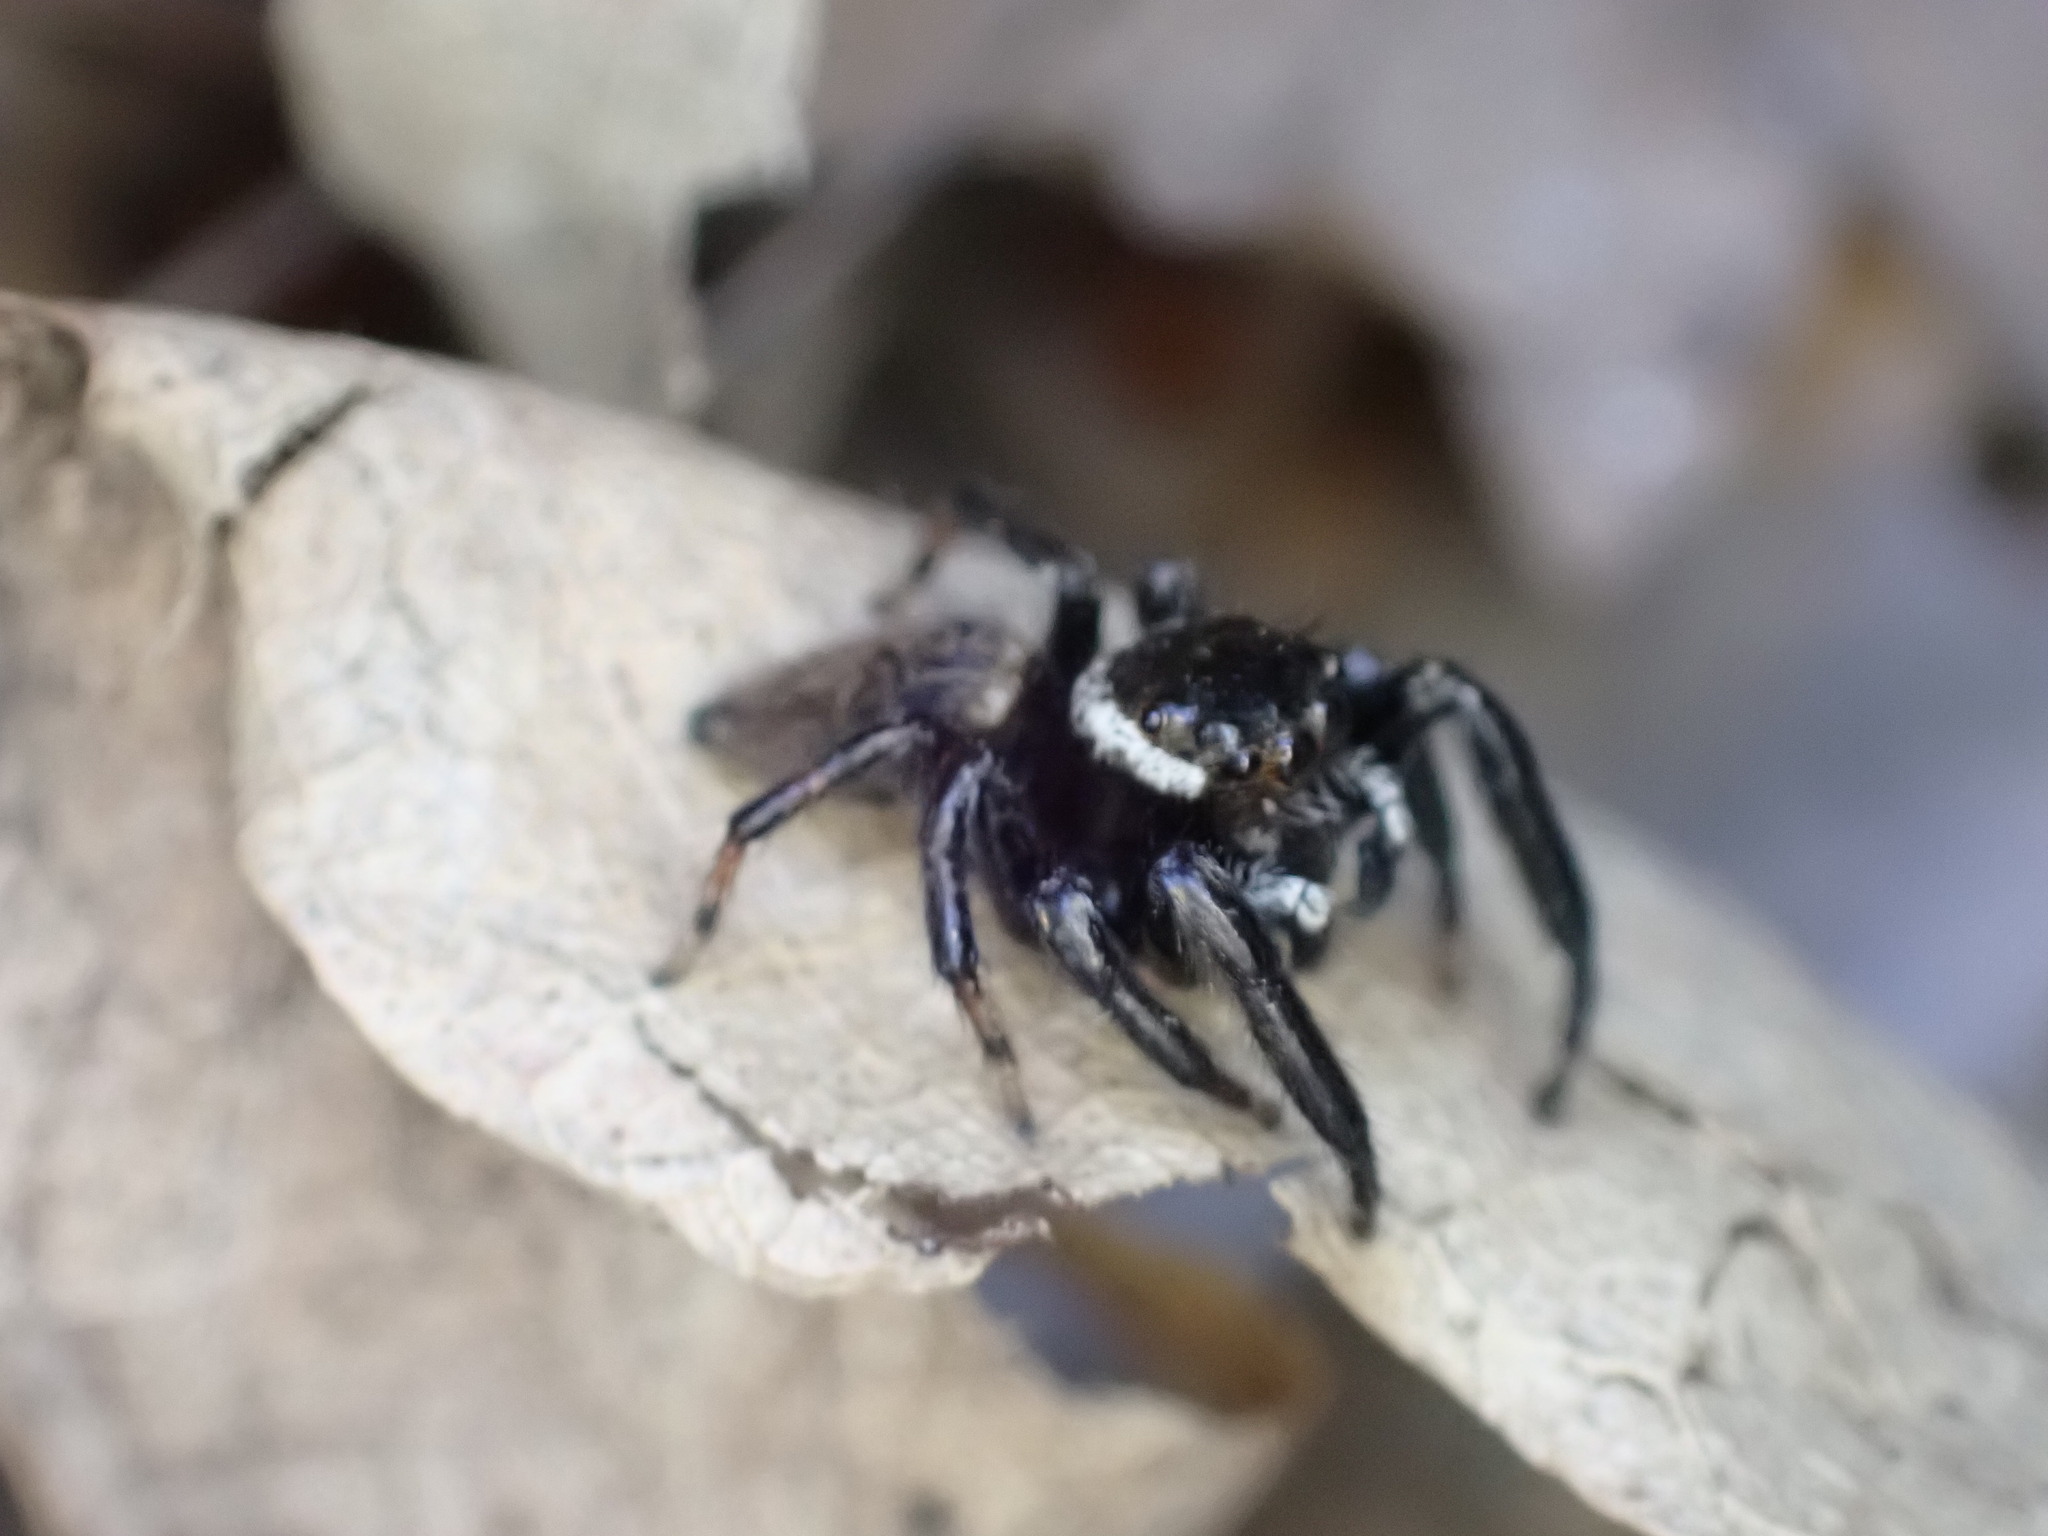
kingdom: Animalia
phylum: Arthropoda
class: Arachnida
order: Araneae
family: Salticidae
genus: Evarcha
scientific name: Evarcha jucunda
